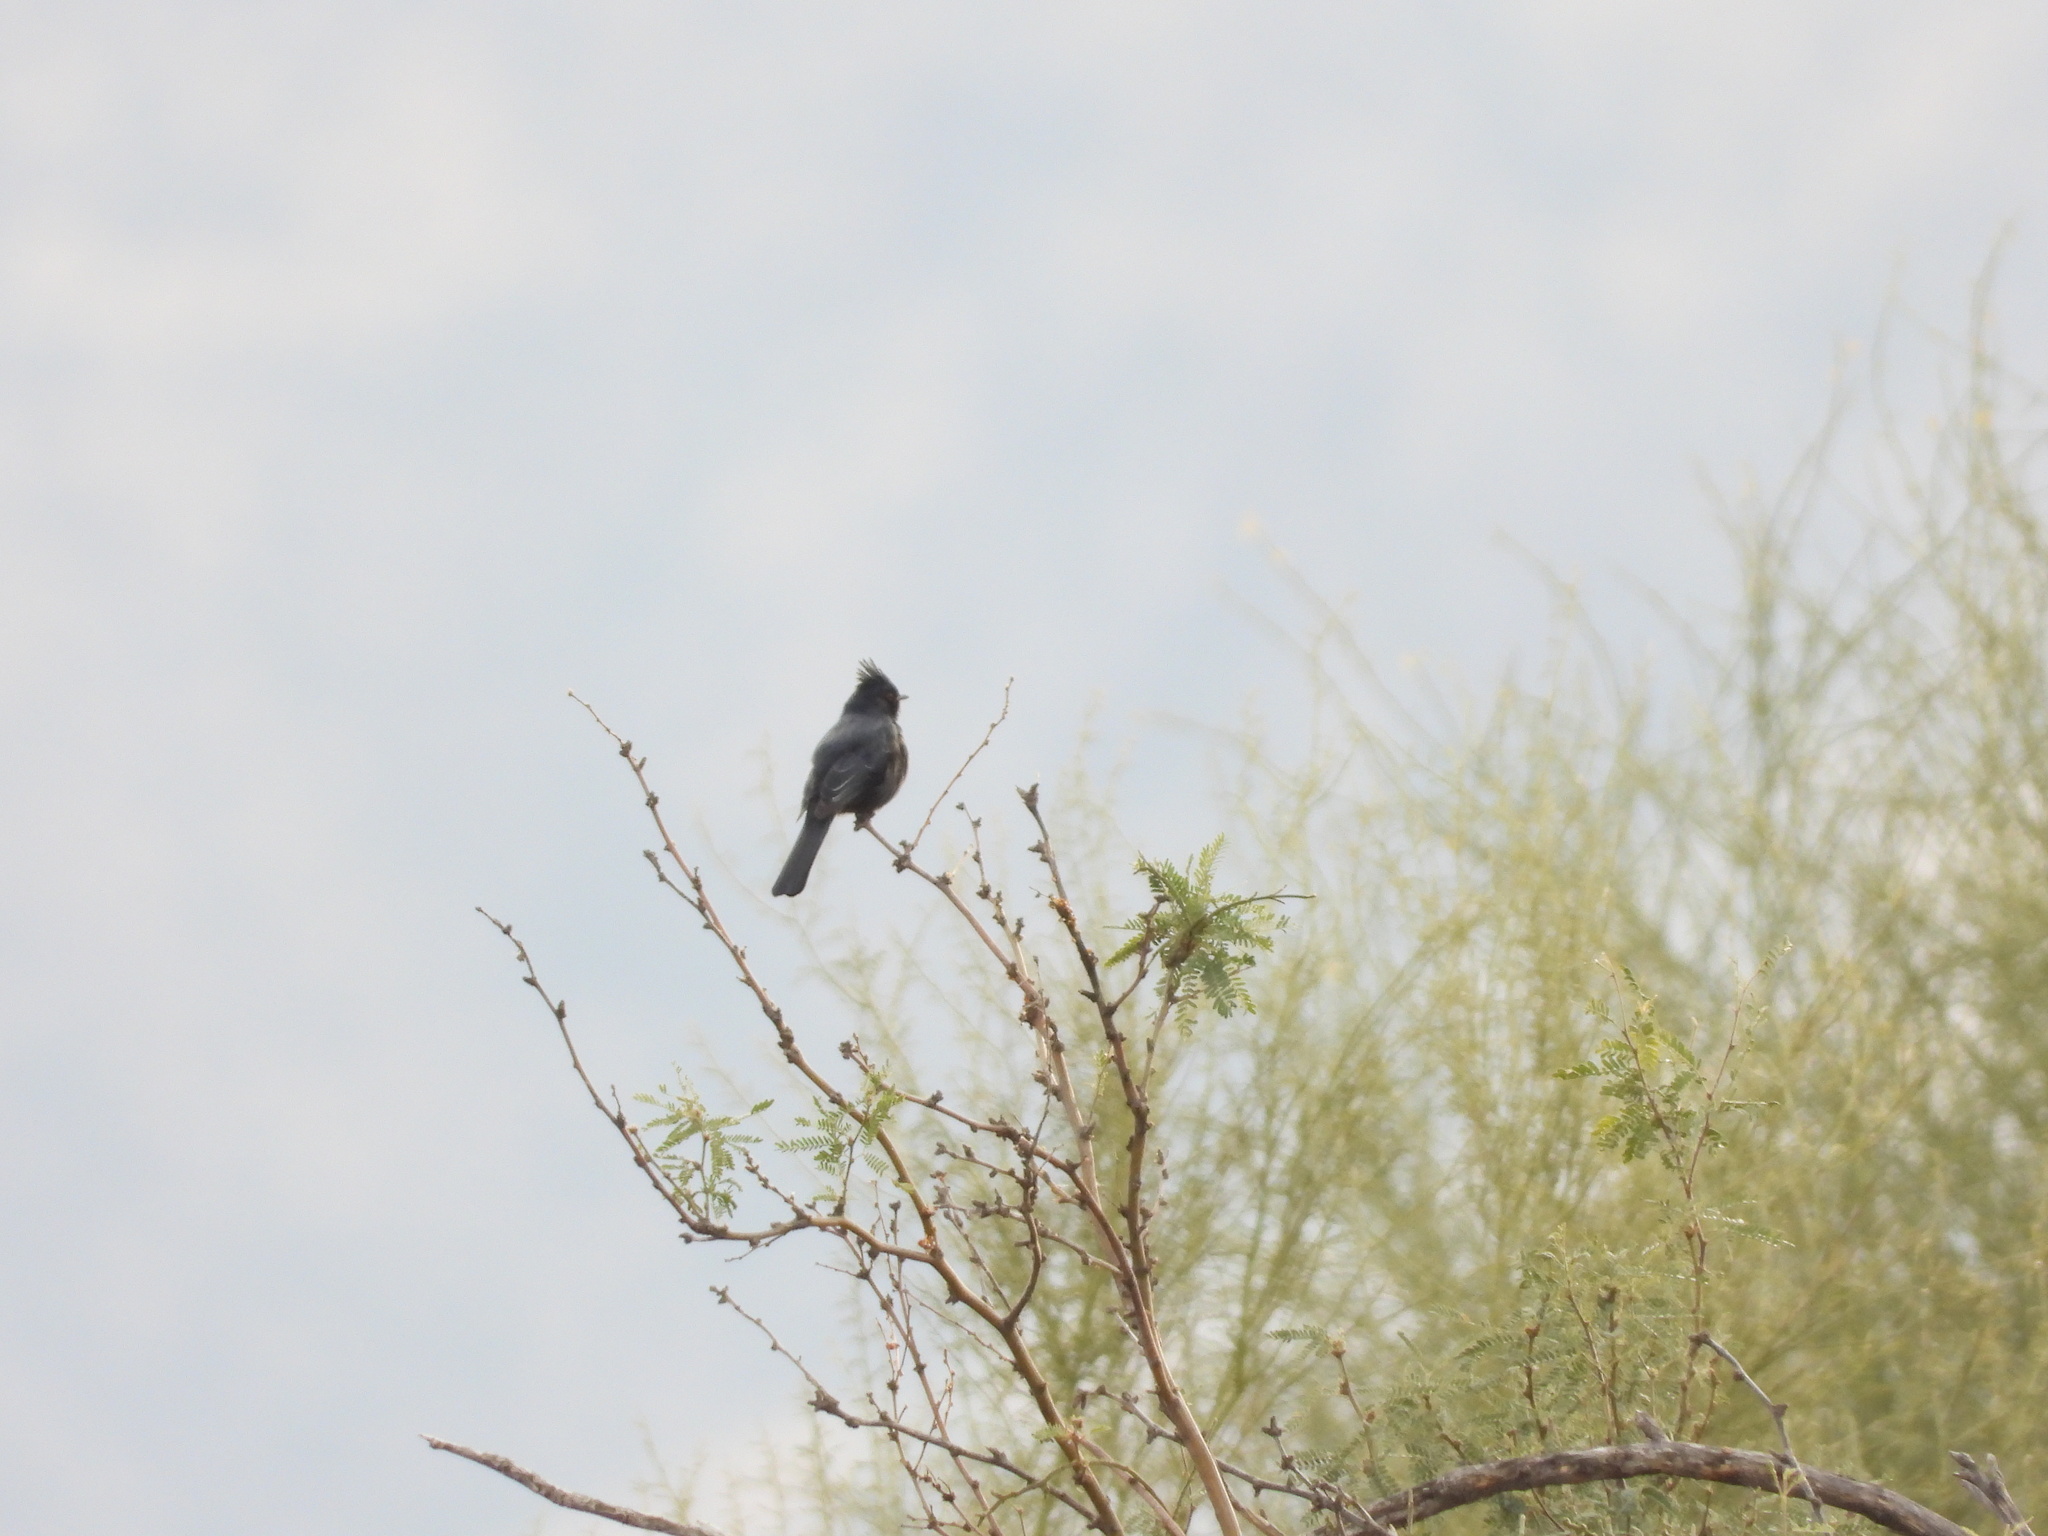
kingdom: Animalia
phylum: Chordata
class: Aves
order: Passeriformes
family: Ptilogonatidae
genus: Phainopepla
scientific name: Phainopepla nitens
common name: Phainopepla
